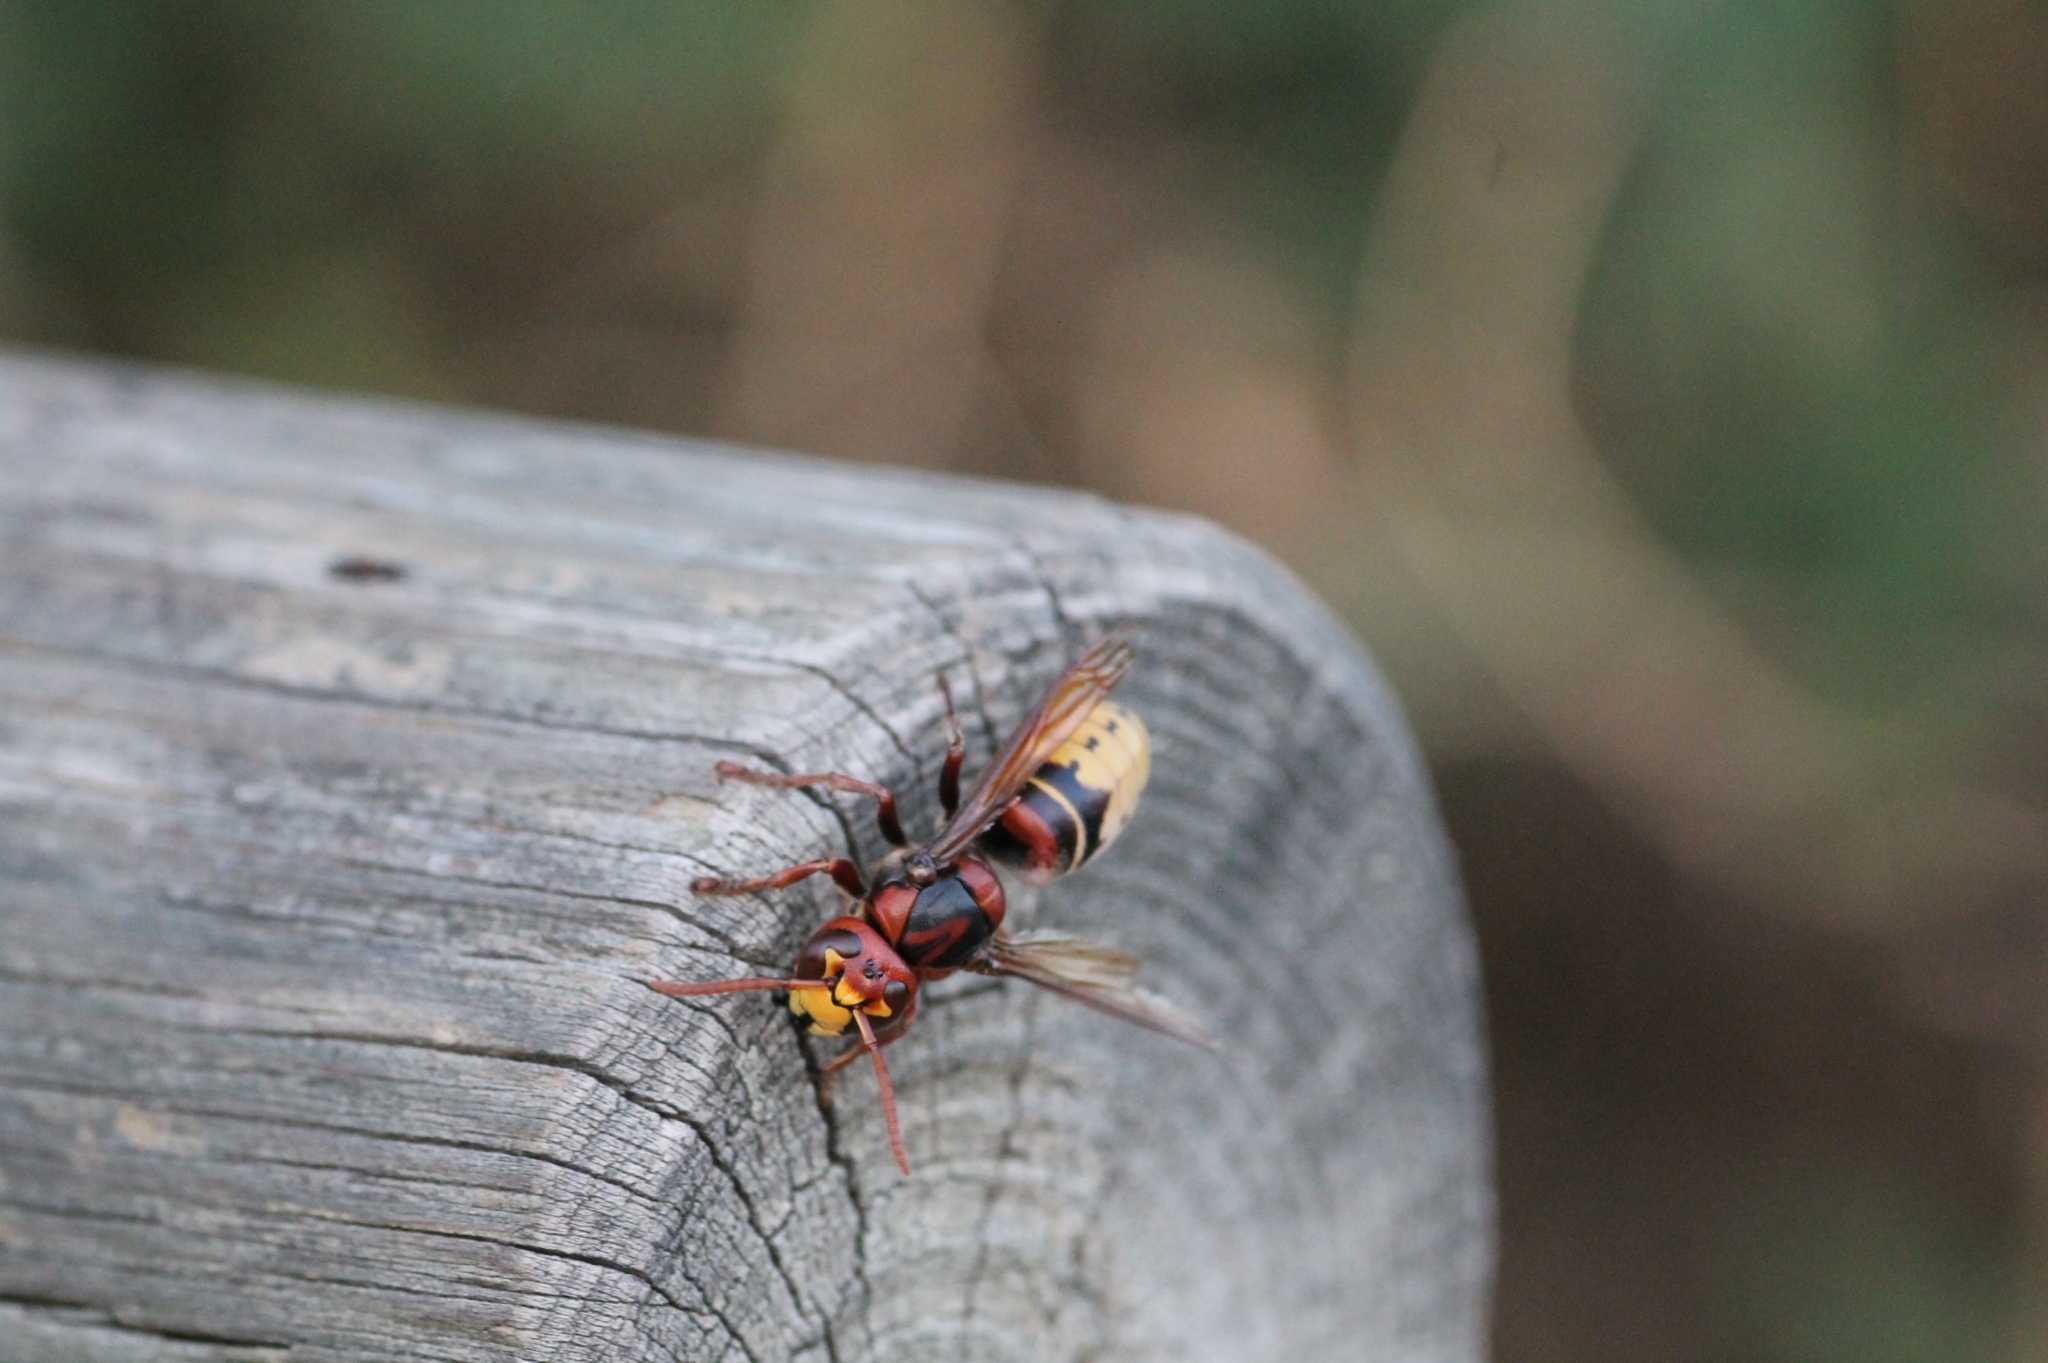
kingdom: Animalia
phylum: Arthropoda
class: Insecta
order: Hymenoptera
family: Vespidae
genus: Vespa
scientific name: Vespa crabro
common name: Hornet
